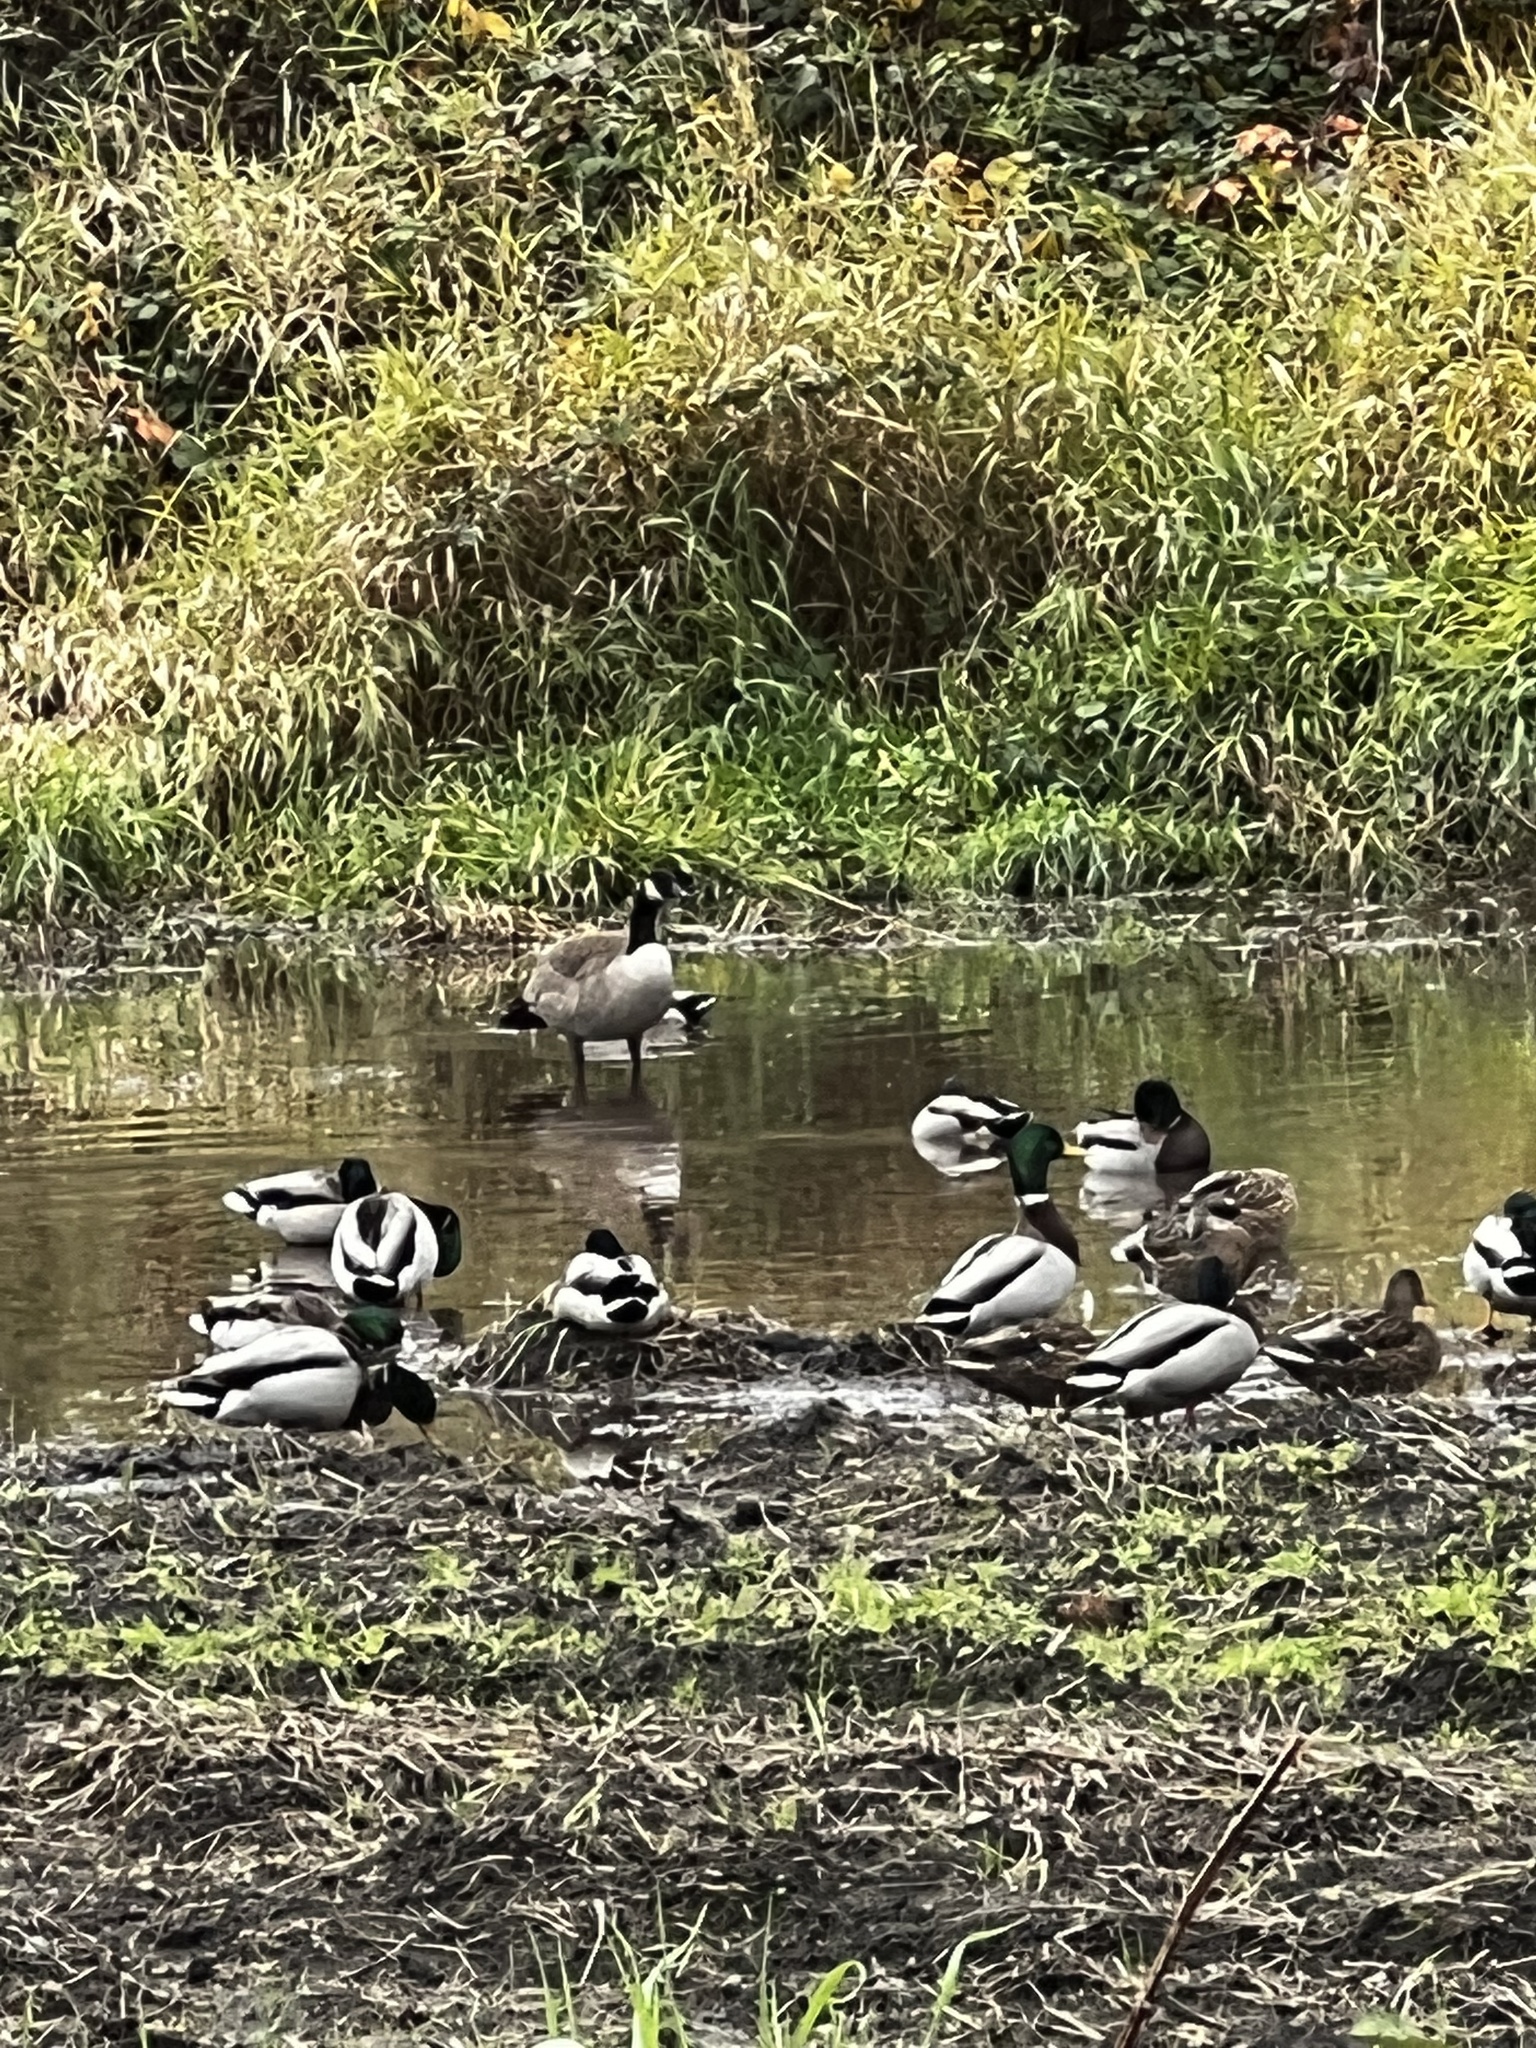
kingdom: Animalia
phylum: Chordata
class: Aves
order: Anseriformes
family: Anatidae
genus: Branta
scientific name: Branta canadensis
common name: Canada goose
